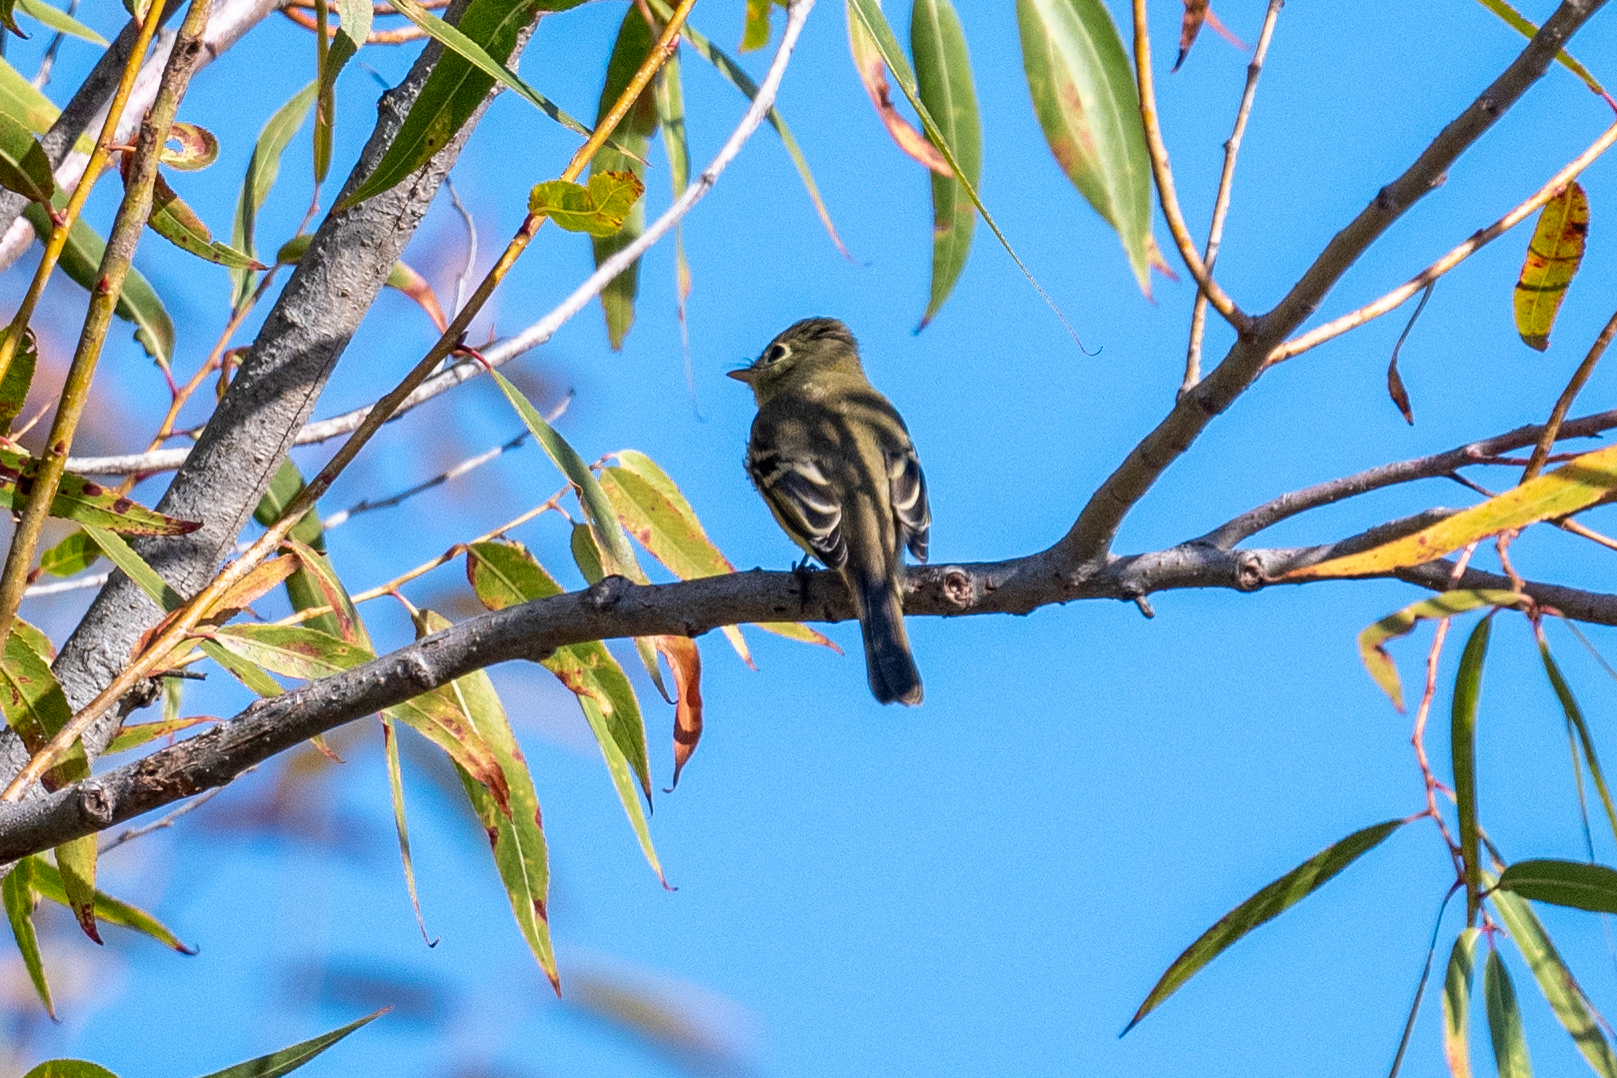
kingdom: Animalia
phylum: Chordata
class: Aves
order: Passeriformes
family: Tyrannidae
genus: Empidonax
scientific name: Empidonax difficilis
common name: Pacific-slope flycatcher
